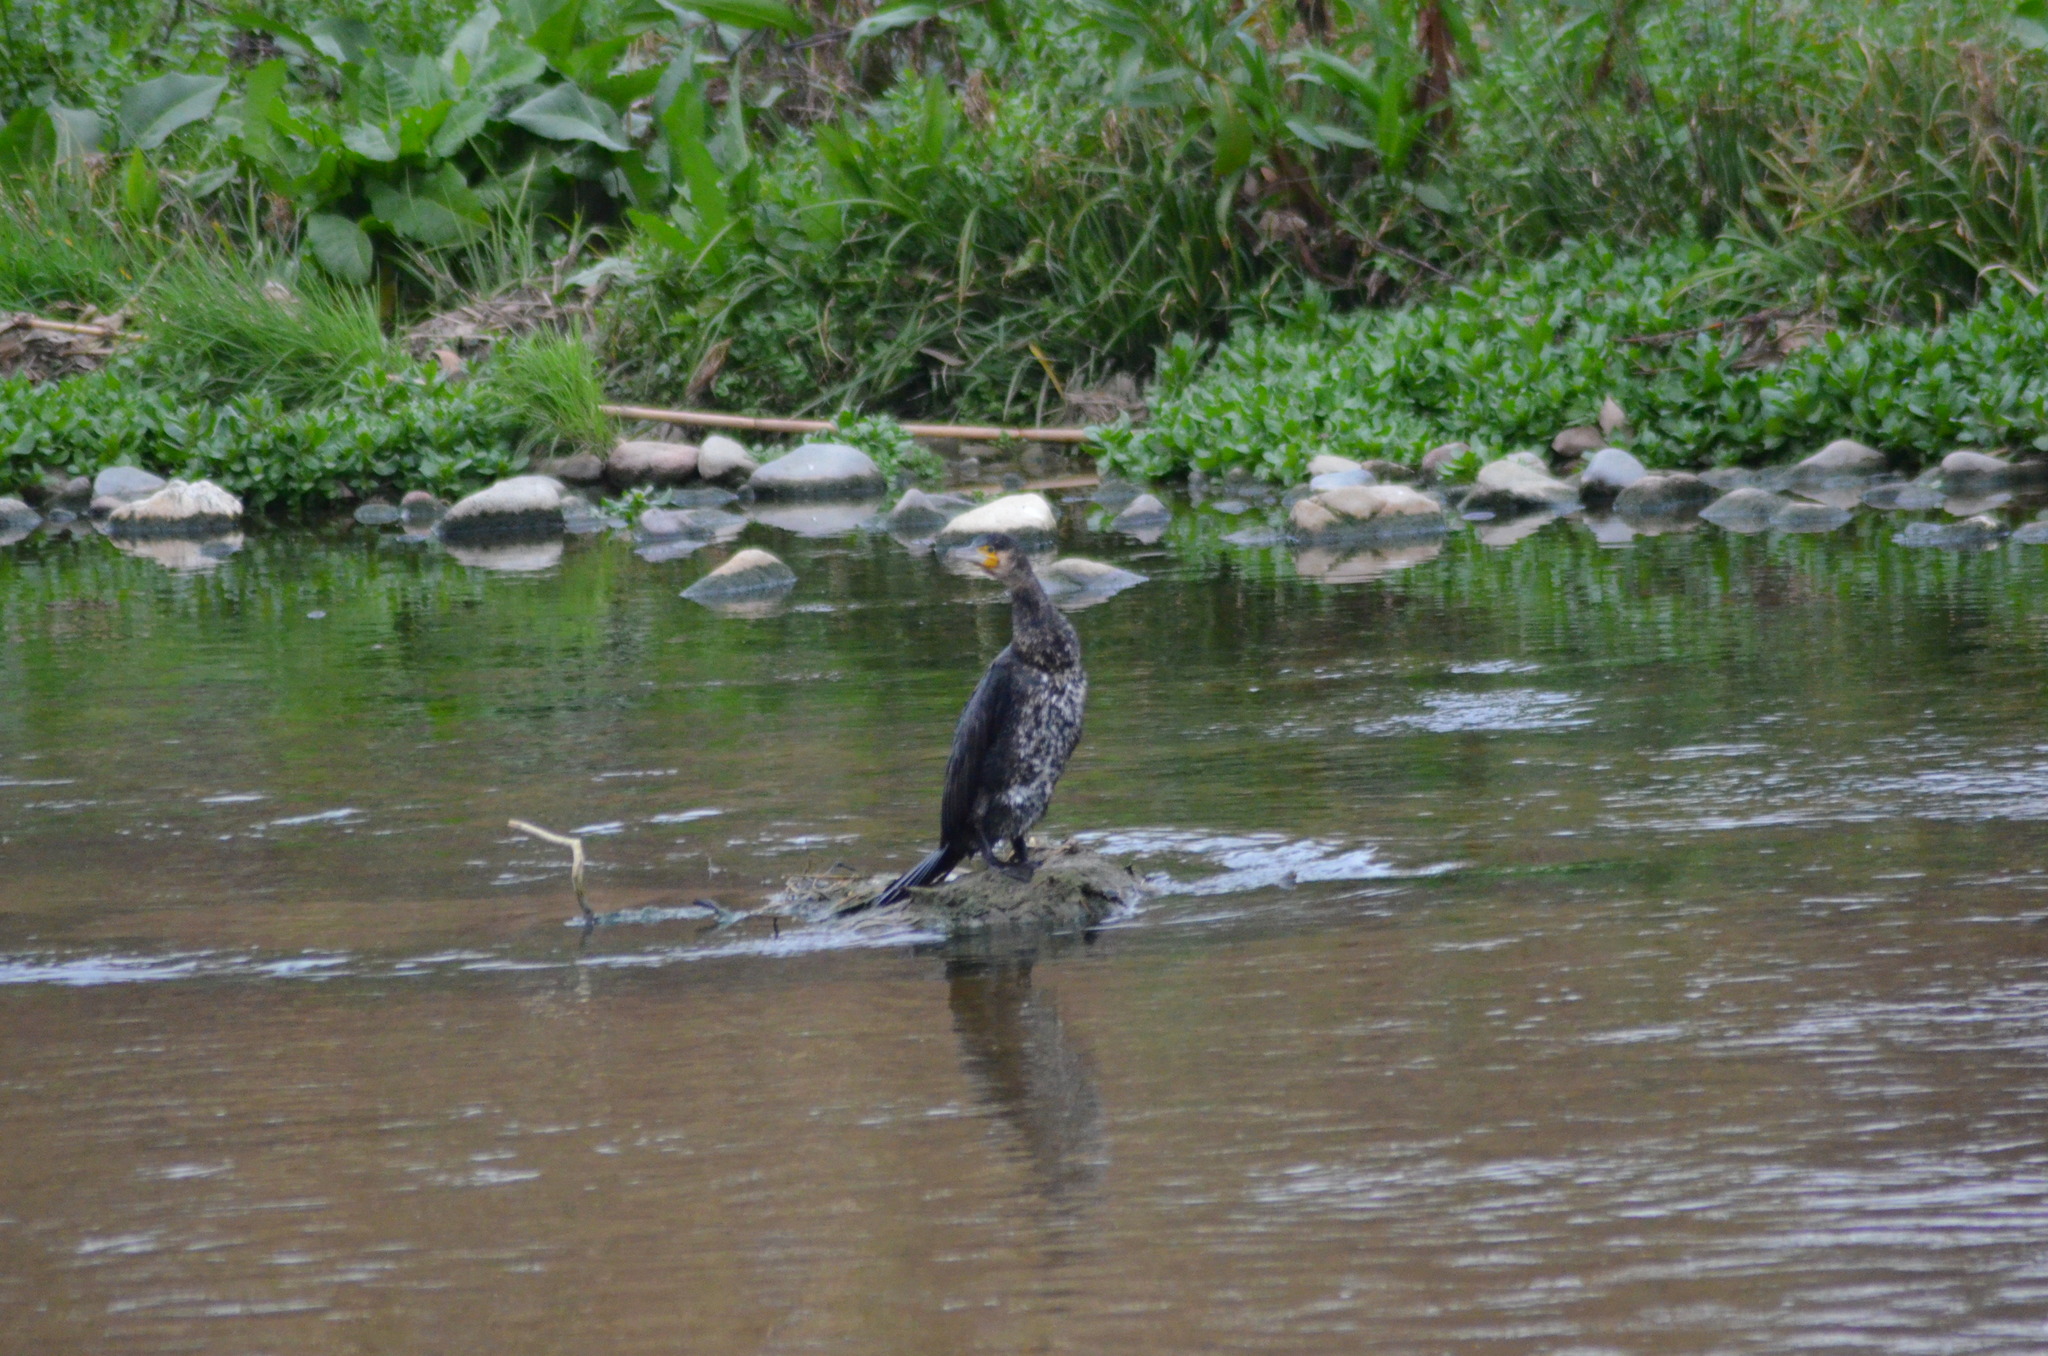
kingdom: Animalia
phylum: Chordata
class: Aves
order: Suliformes
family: Phalacrocoracidae
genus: Phalacrocorax
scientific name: Phalacrocorax carbo
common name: Great cormorant
